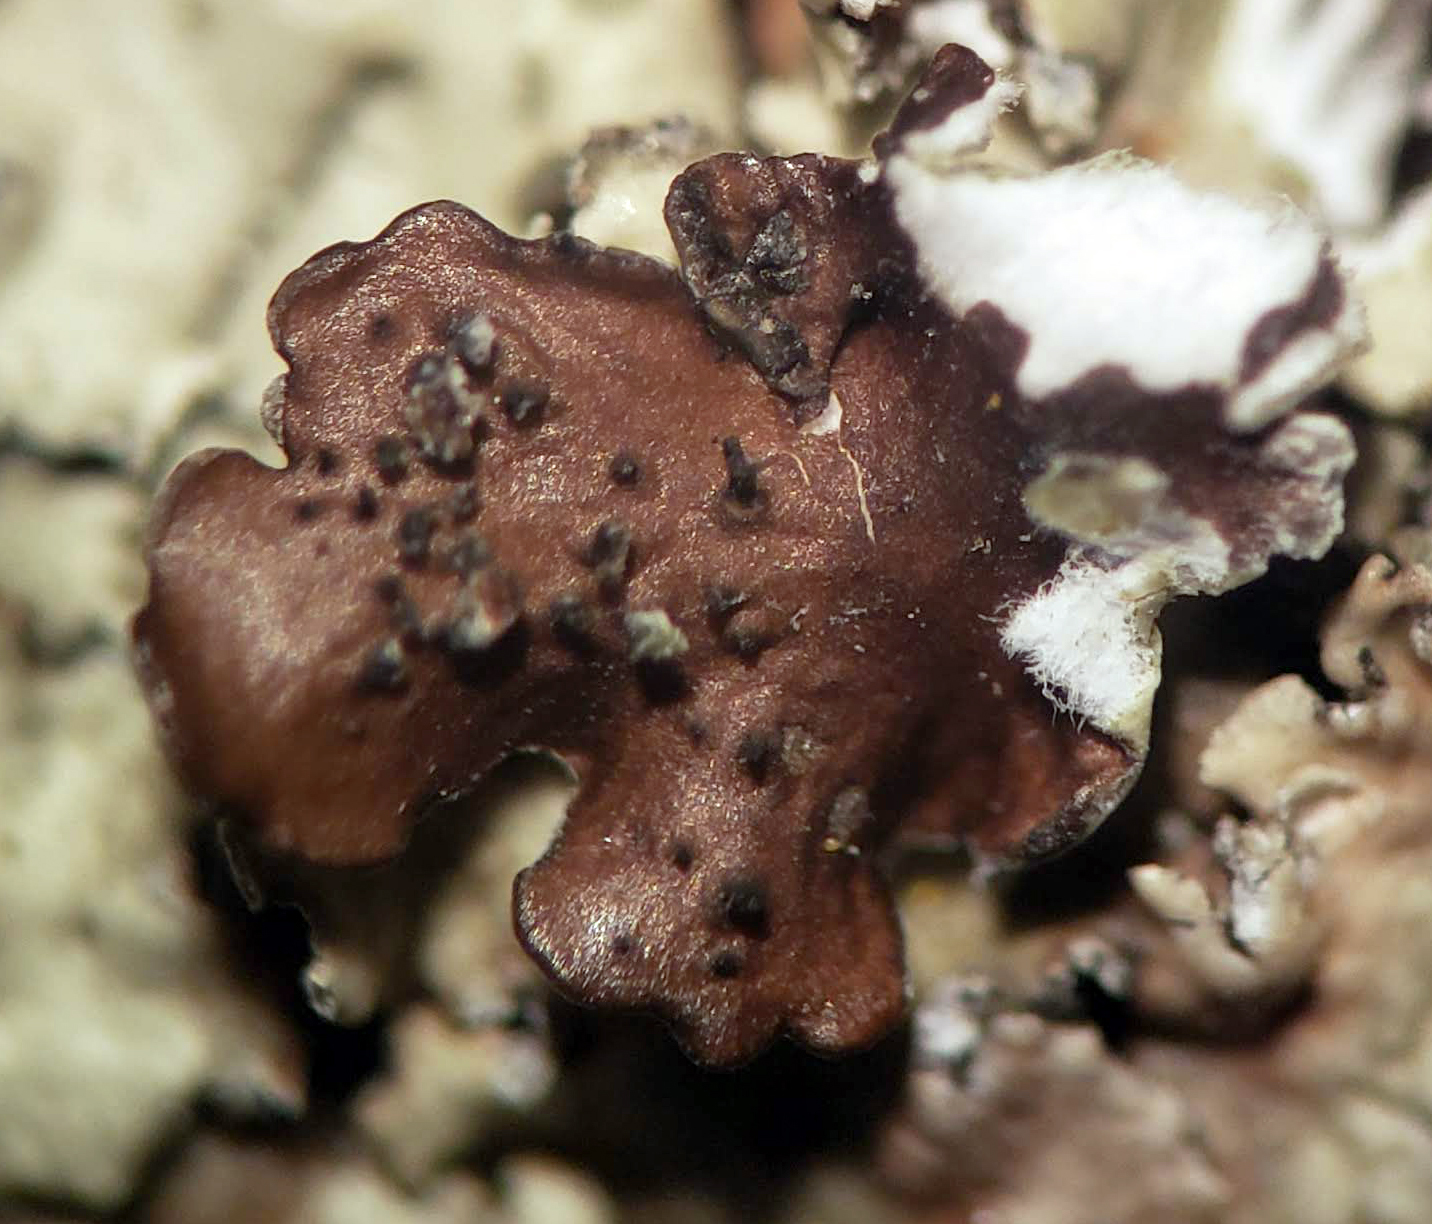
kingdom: Fungi
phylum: Ascomycota
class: Lecanoromycetes
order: Lecanorales
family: Parmeliaceae
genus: Flavopunctelia
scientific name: Flavopunctelia soredica
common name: Powder-edged speckled greenshield
